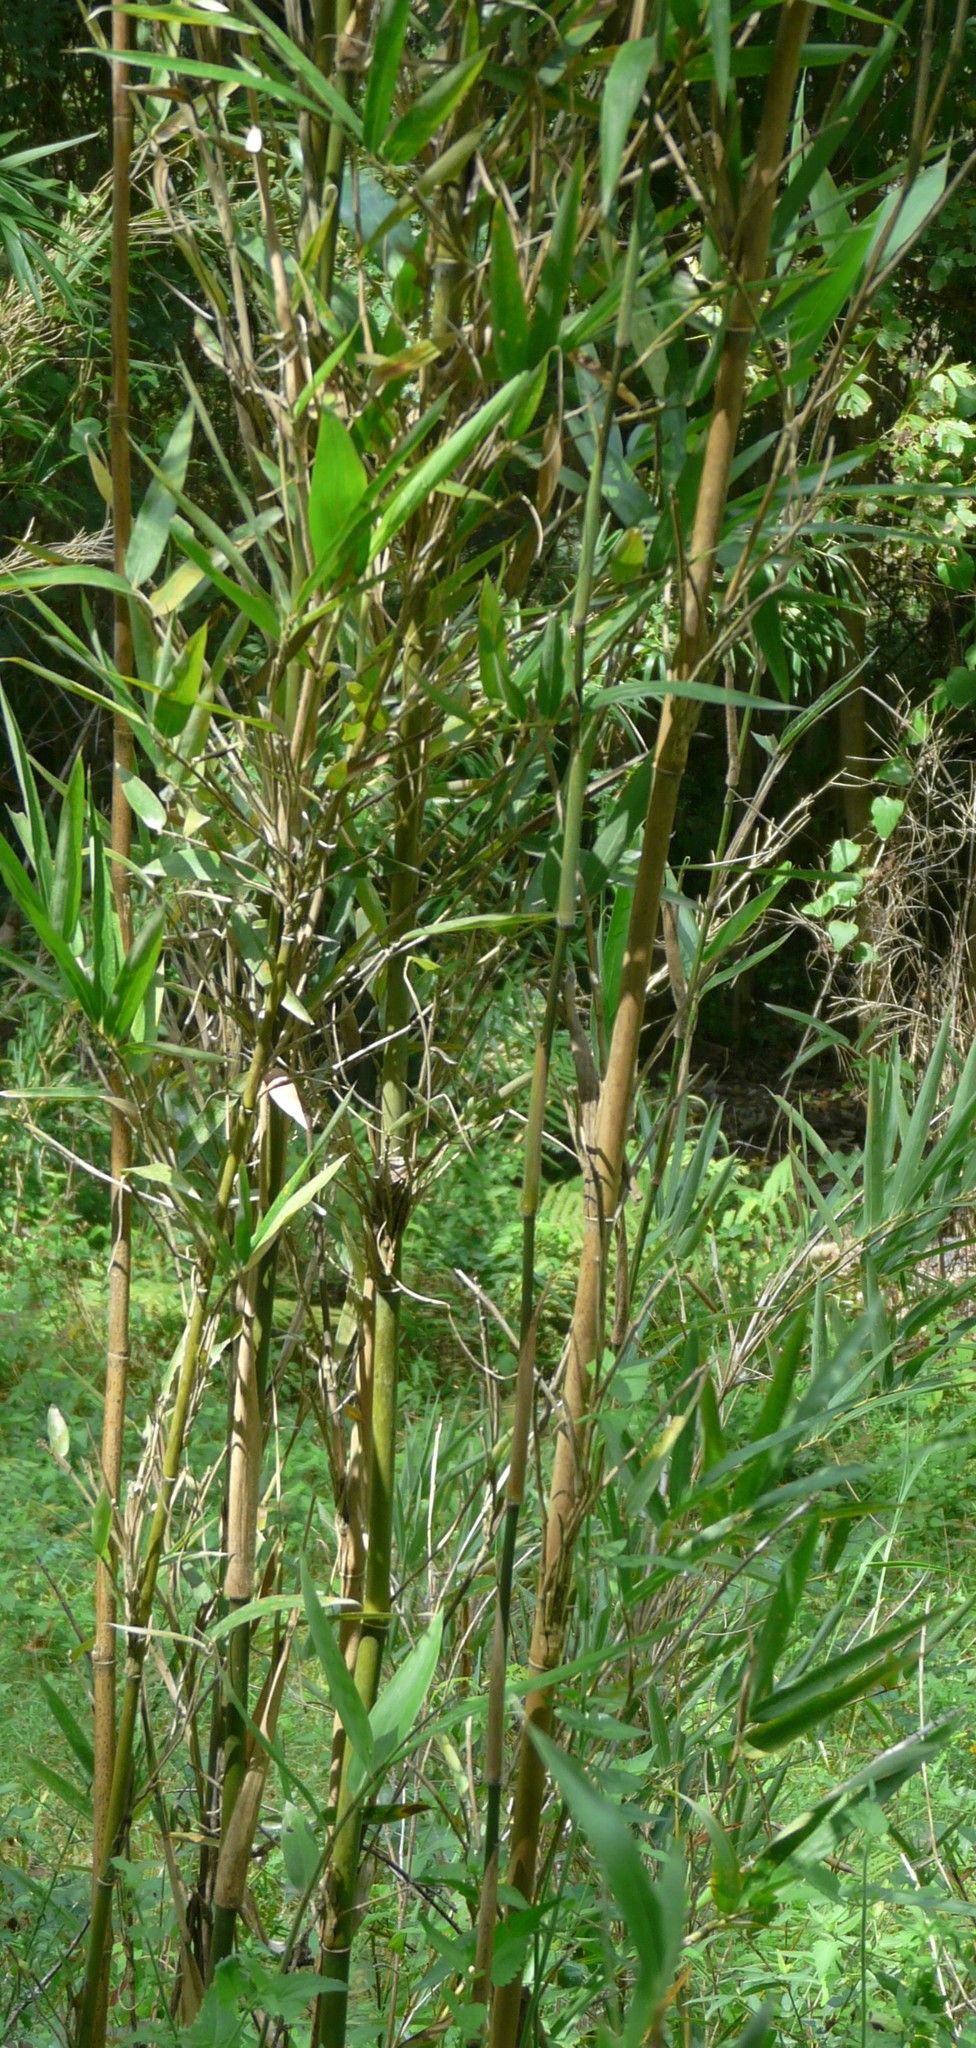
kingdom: Plantae
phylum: Tracheophyta
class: Liliopsida
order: Poales
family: Poaceae
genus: Arundinaria
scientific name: Arundinaria gigantea
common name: Giant cane
